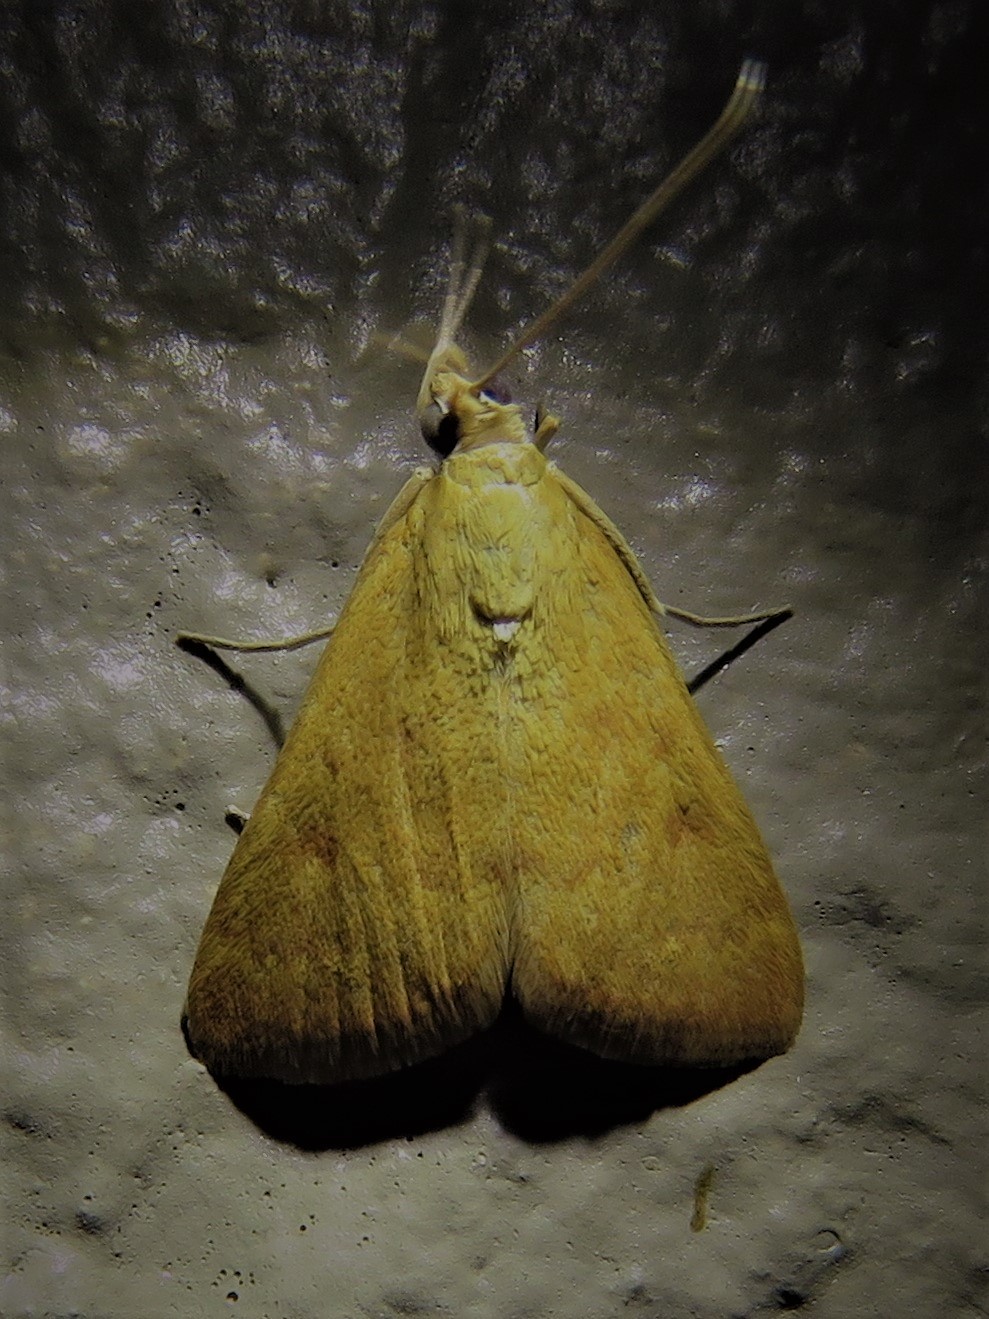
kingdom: Animalia
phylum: Arthropoda
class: Insecta
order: Lepidoptera
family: Crambidae
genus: Achyra
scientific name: Achyra rantalis
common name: Garden webworm
